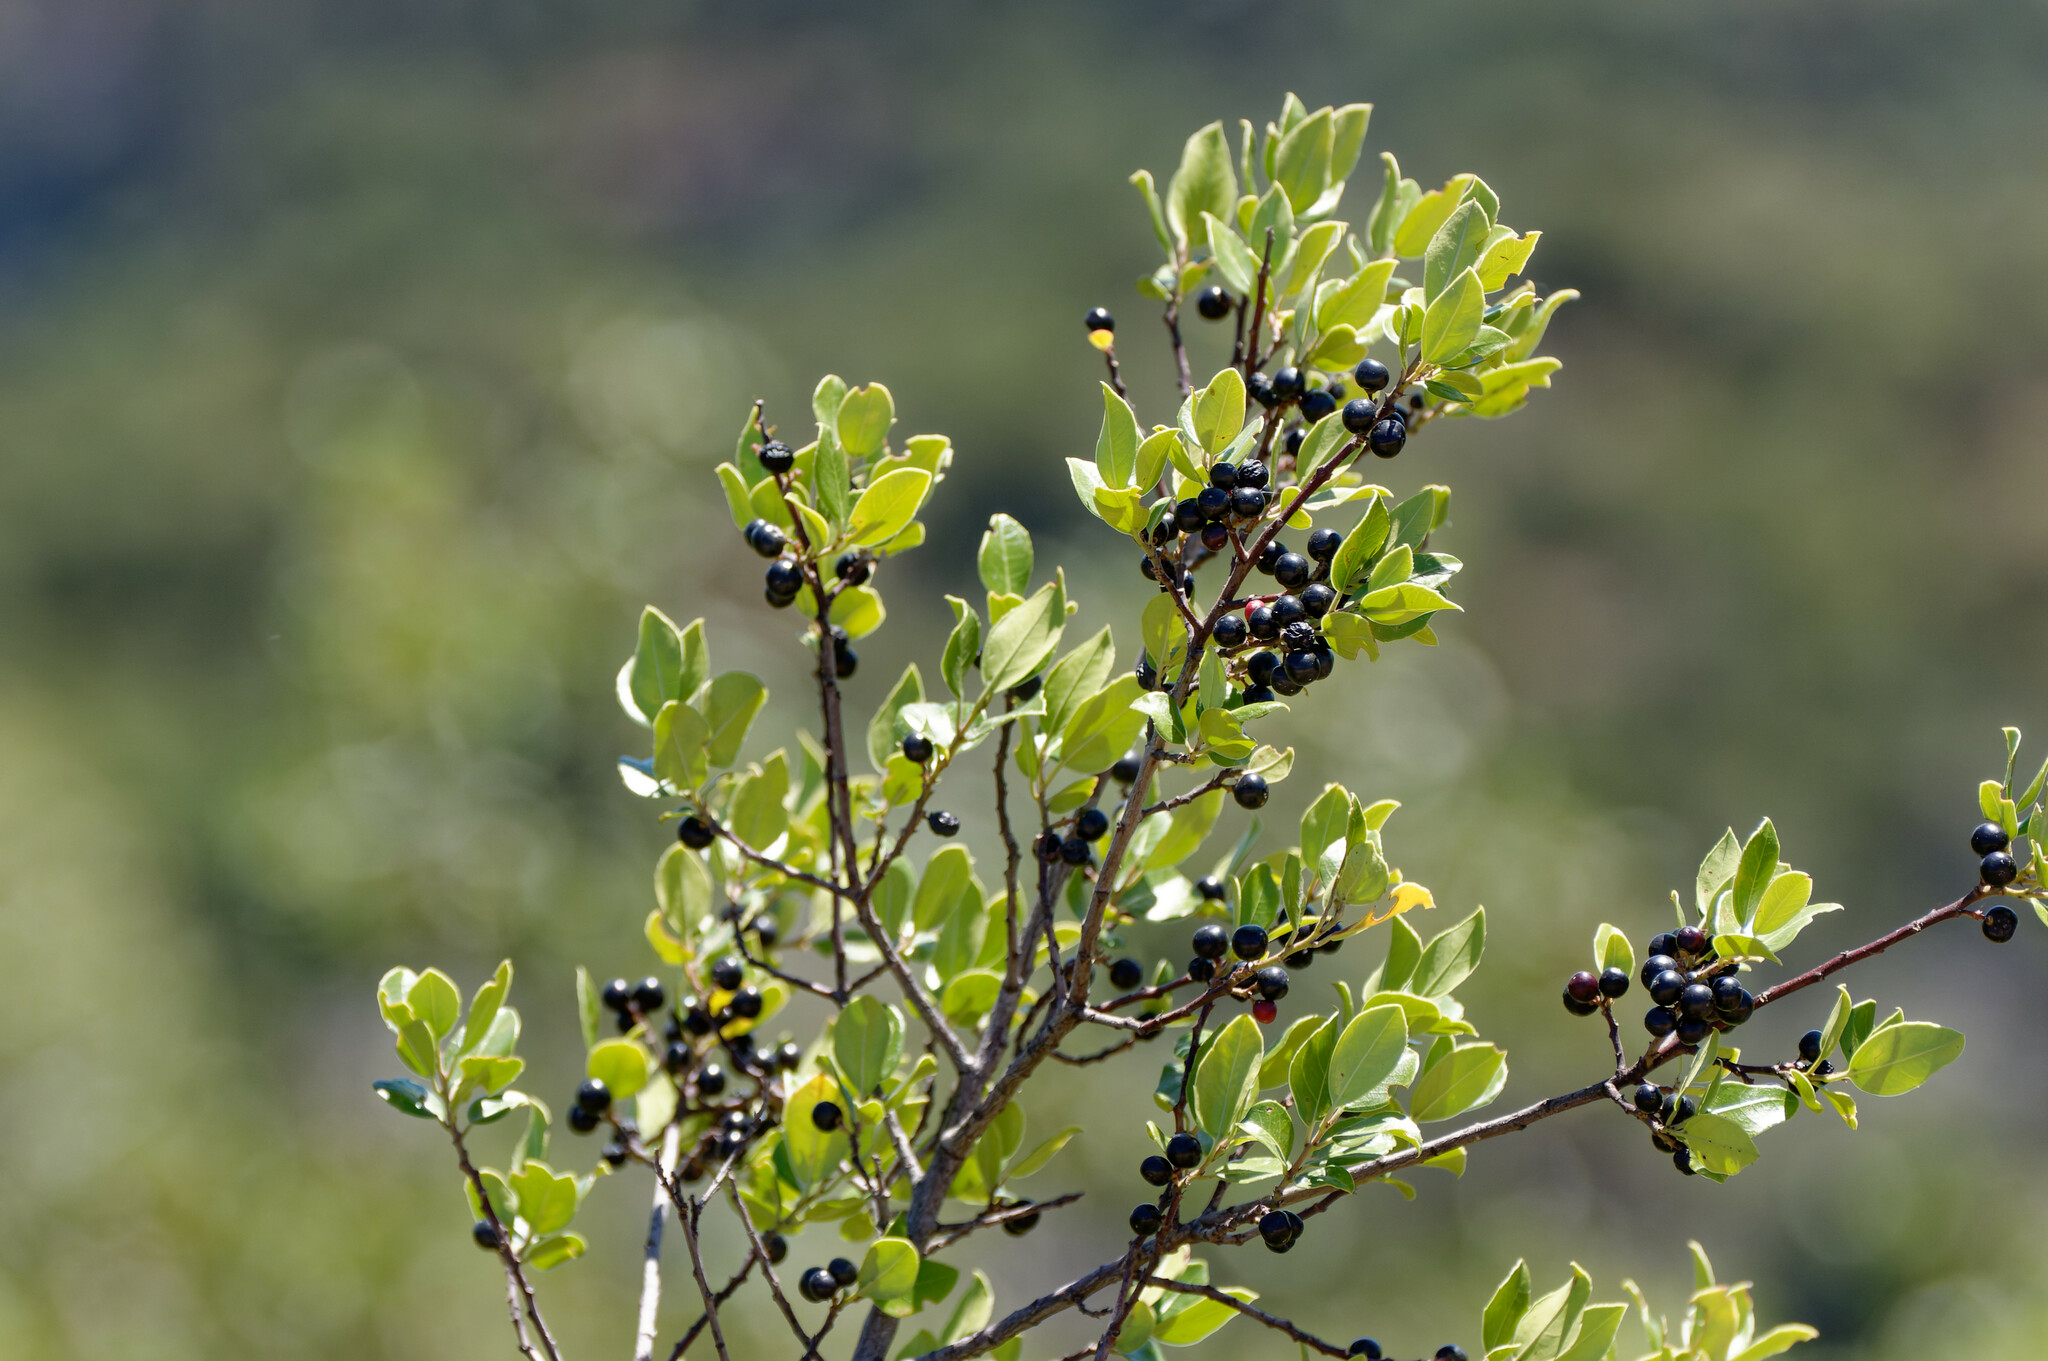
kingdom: Plantae
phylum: Tracheophyta
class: Magnoliopsida
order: Rosales
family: Rhamnaceae
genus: Rhamnus
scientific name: Rhamnus alaternus
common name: Mediterranean buckthorn
